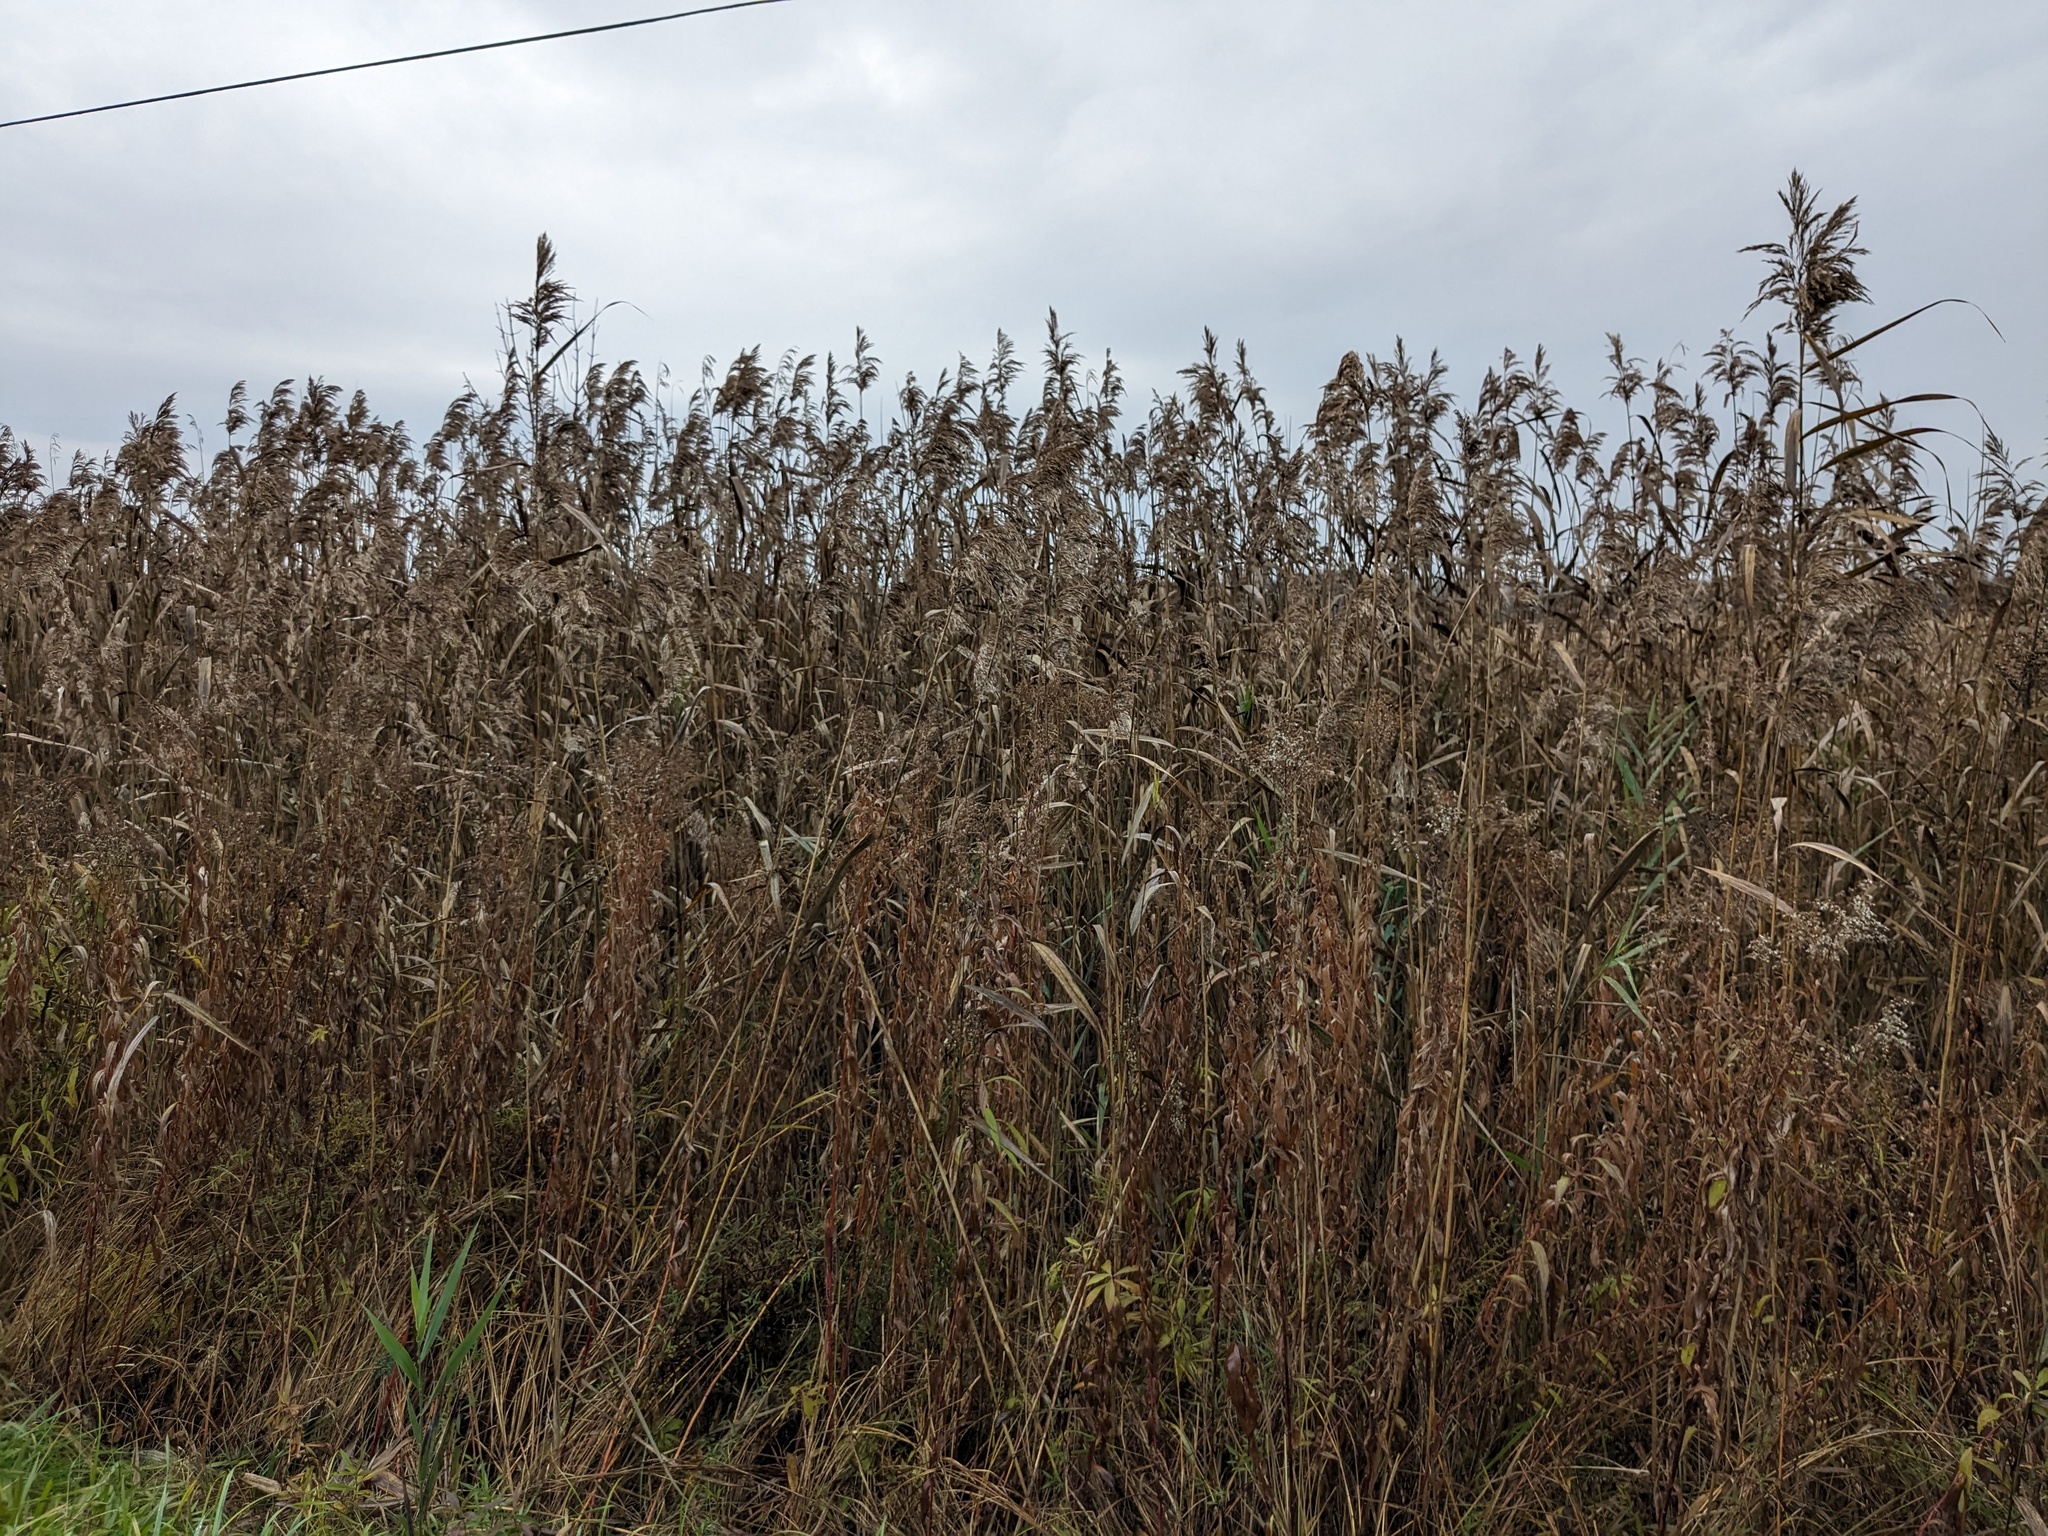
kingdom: Plantae
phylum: Tracheophyta
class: Liliopsida
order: Poales
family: Poaceae
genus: Phragmites
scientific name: Phragmites australis
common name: Common reed
